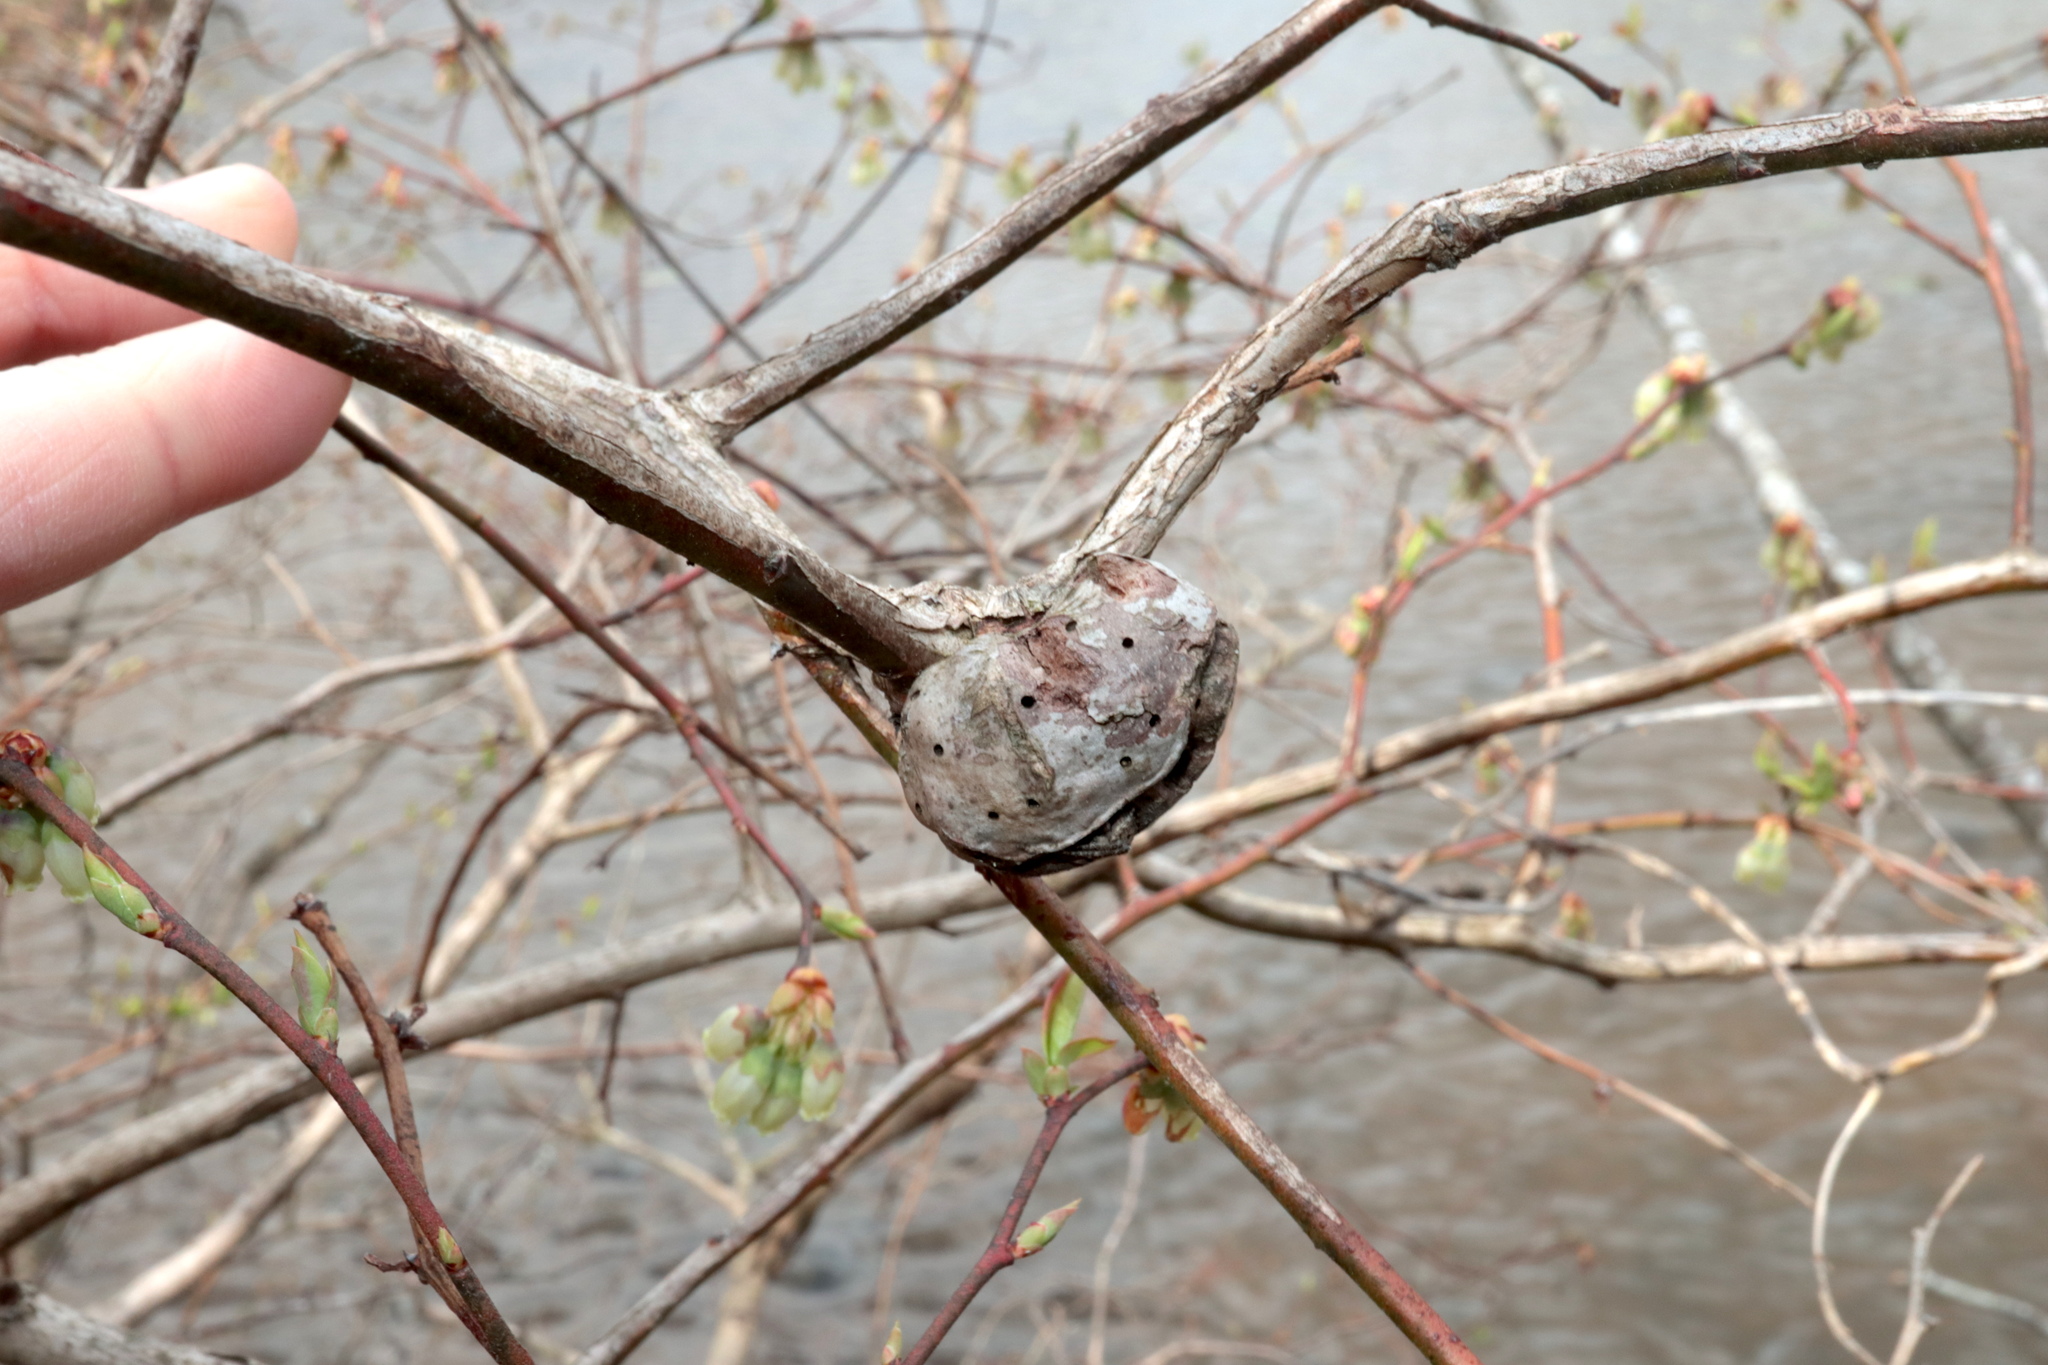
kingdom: Animalia
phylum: Arthropoda
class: Insecta
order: Hymenoptera
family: Pteromalidae
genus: Hemadas
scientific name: Hemadas nubilipennis
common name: Blueberry stem gall wasp
